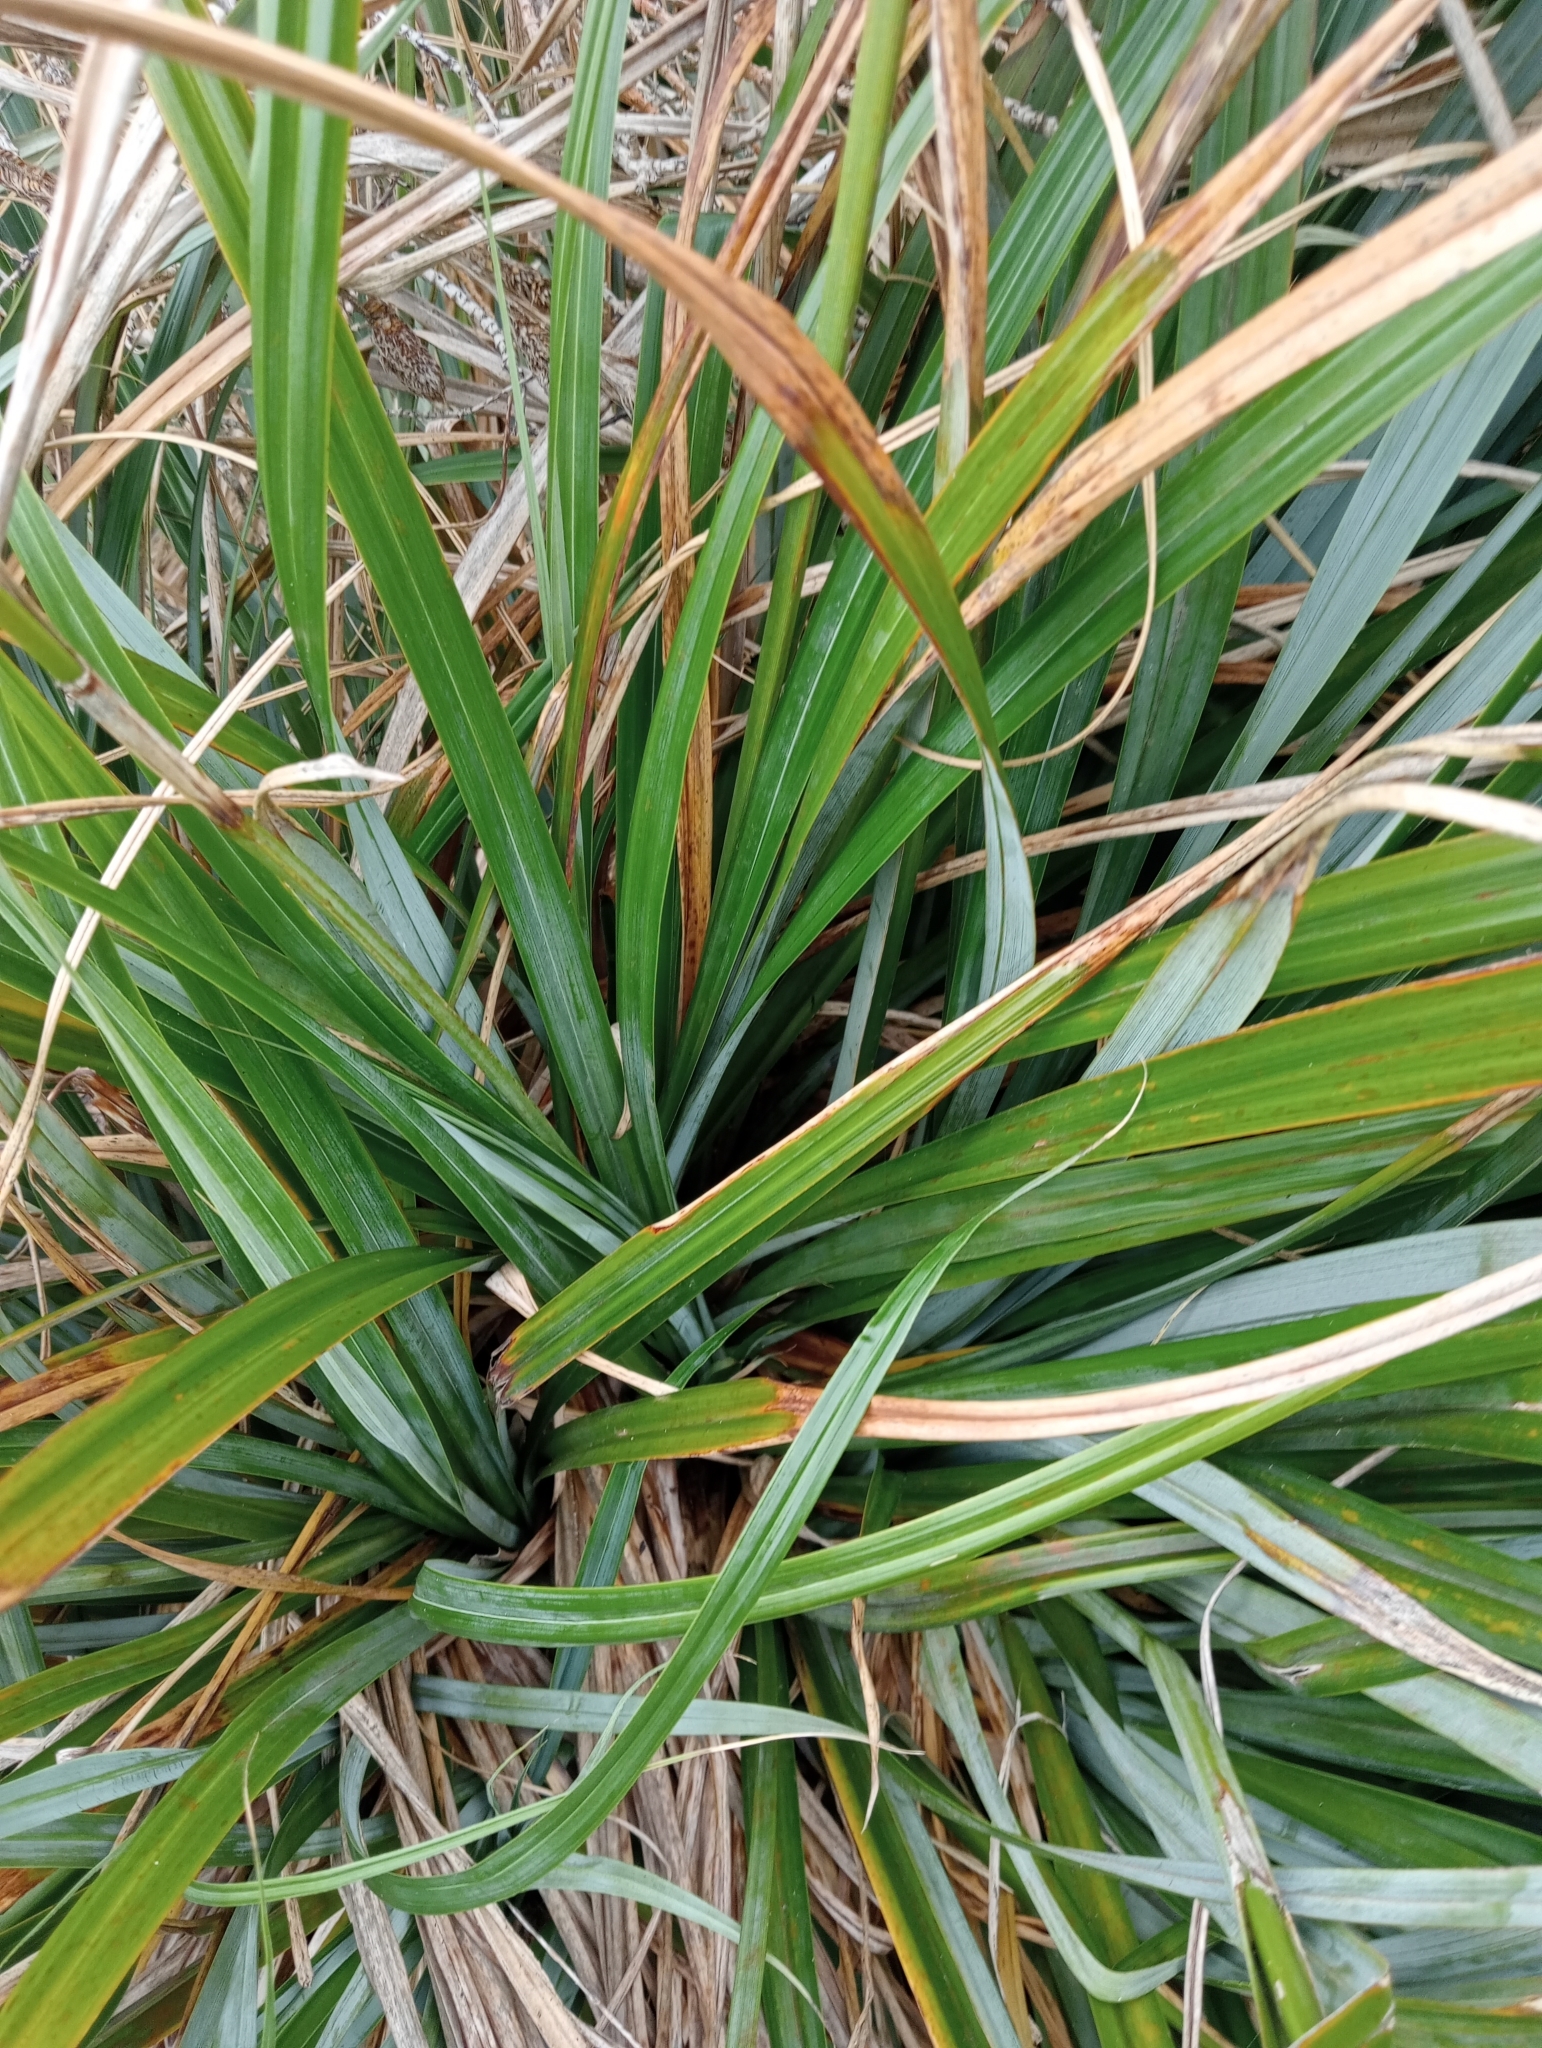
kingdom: Plantae
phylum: Tracheophyta
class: Liliopsida
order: Poales
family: Cyperaceae
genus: Carex
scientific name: Carex trifida
